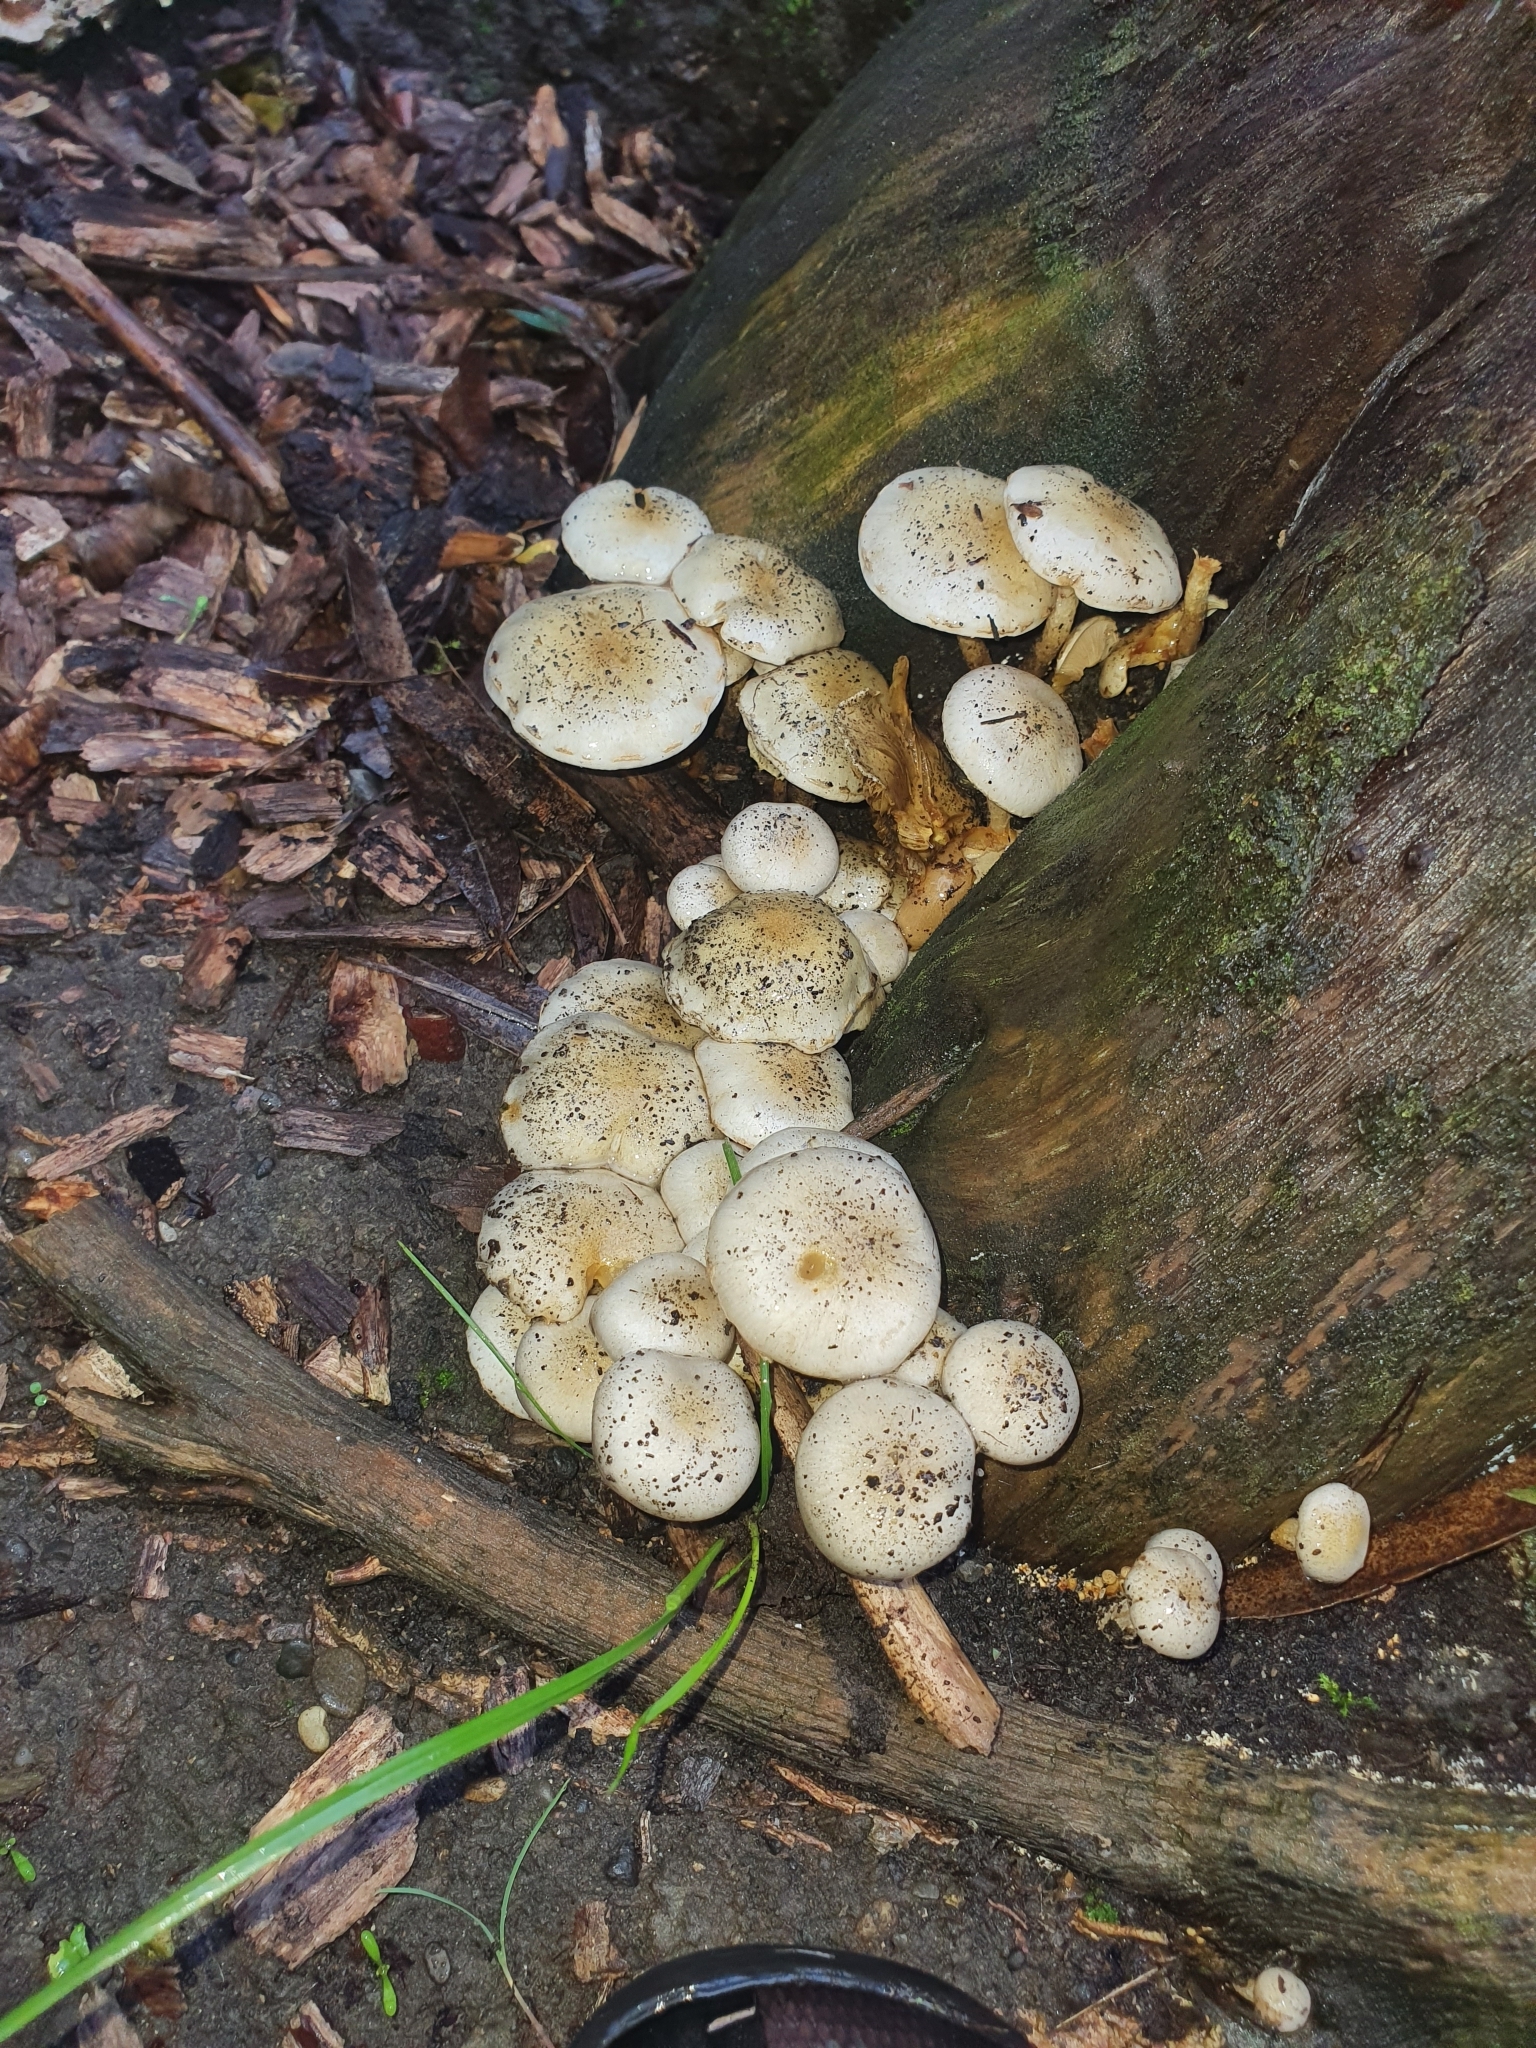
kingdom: Fungi
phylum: Basidiomycota
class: Agaricomycetes
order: Agaricales
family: Strophariaceae
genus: Pholiota
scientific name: Pholiota gummosa
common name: Sticky scalycap
